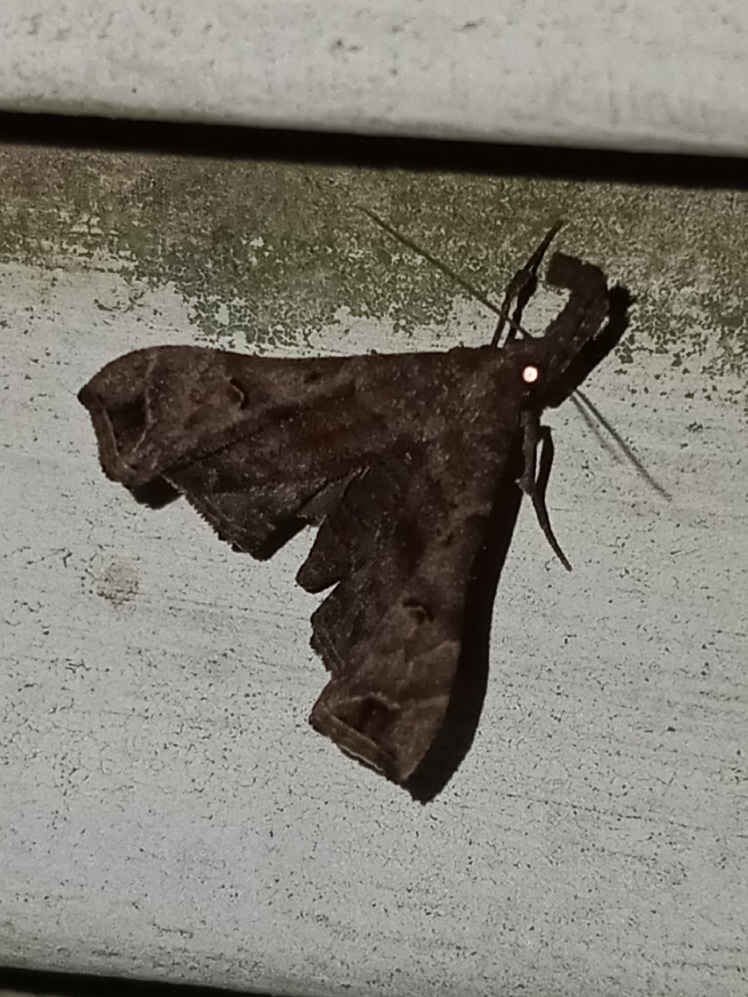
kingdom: Animalia
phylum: Arthropoda
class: Insecta
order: Lepidoptera
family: Erebidae
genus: Palthis
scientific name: Palthis asopialis
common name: Faint-spotted palthis moth
